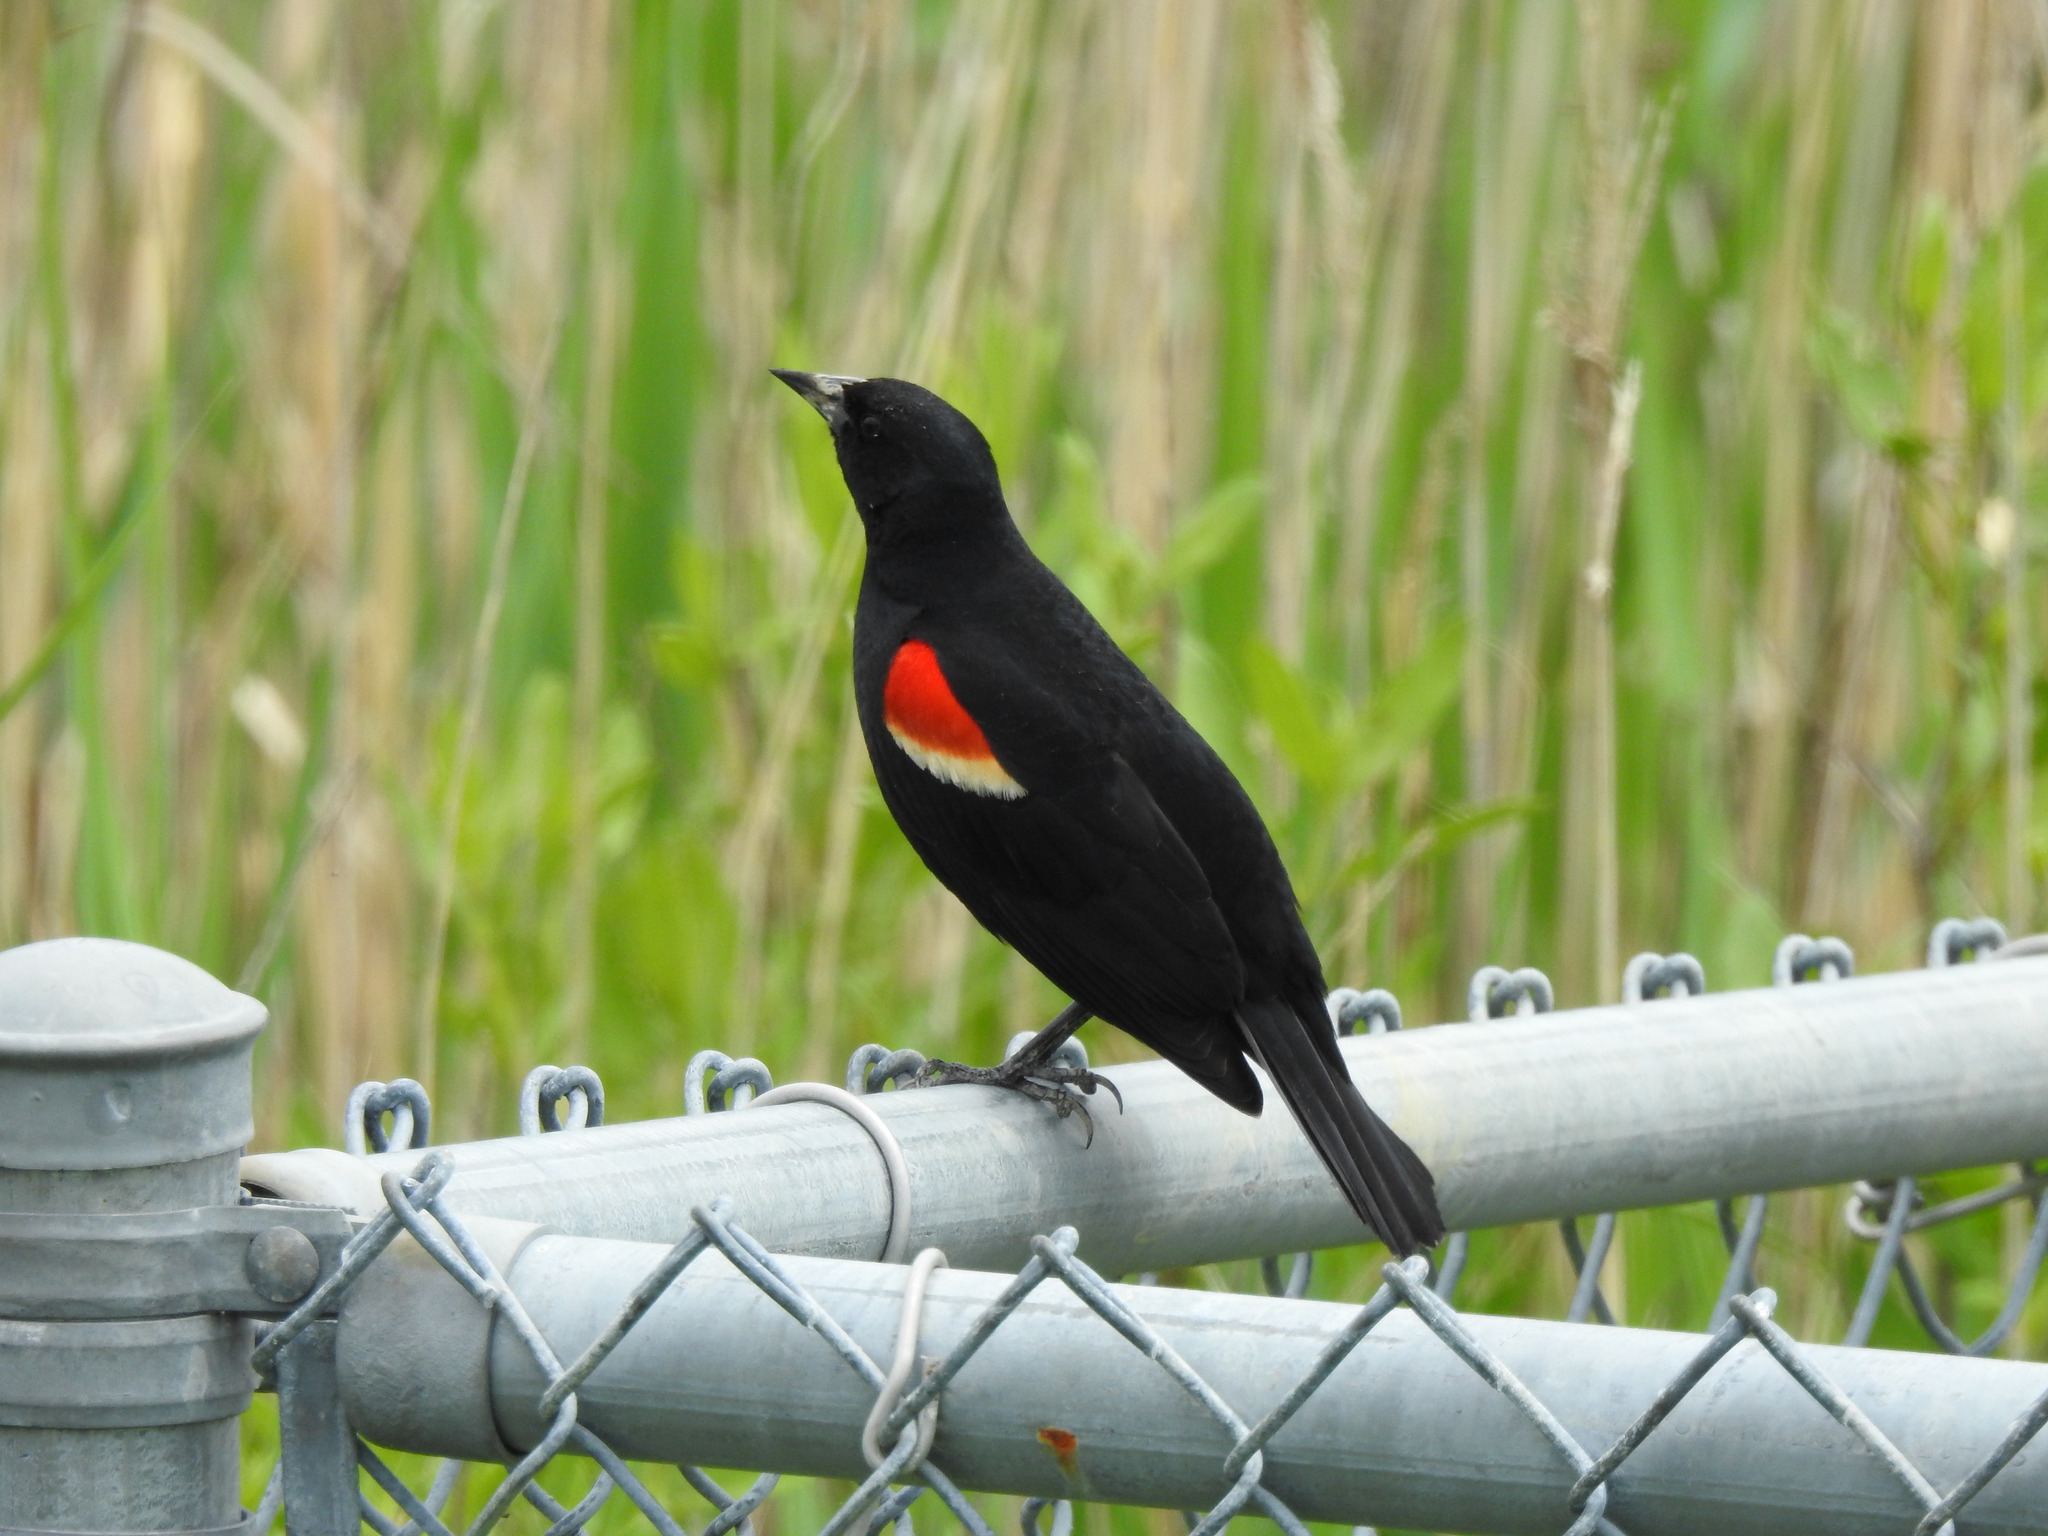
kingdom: Animalia
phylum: Chordata
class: Aves
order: Passeriformes
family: Icteridae
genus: Agelaius
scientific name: Agelaius phoeniceus
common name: Red-winged blackbird
